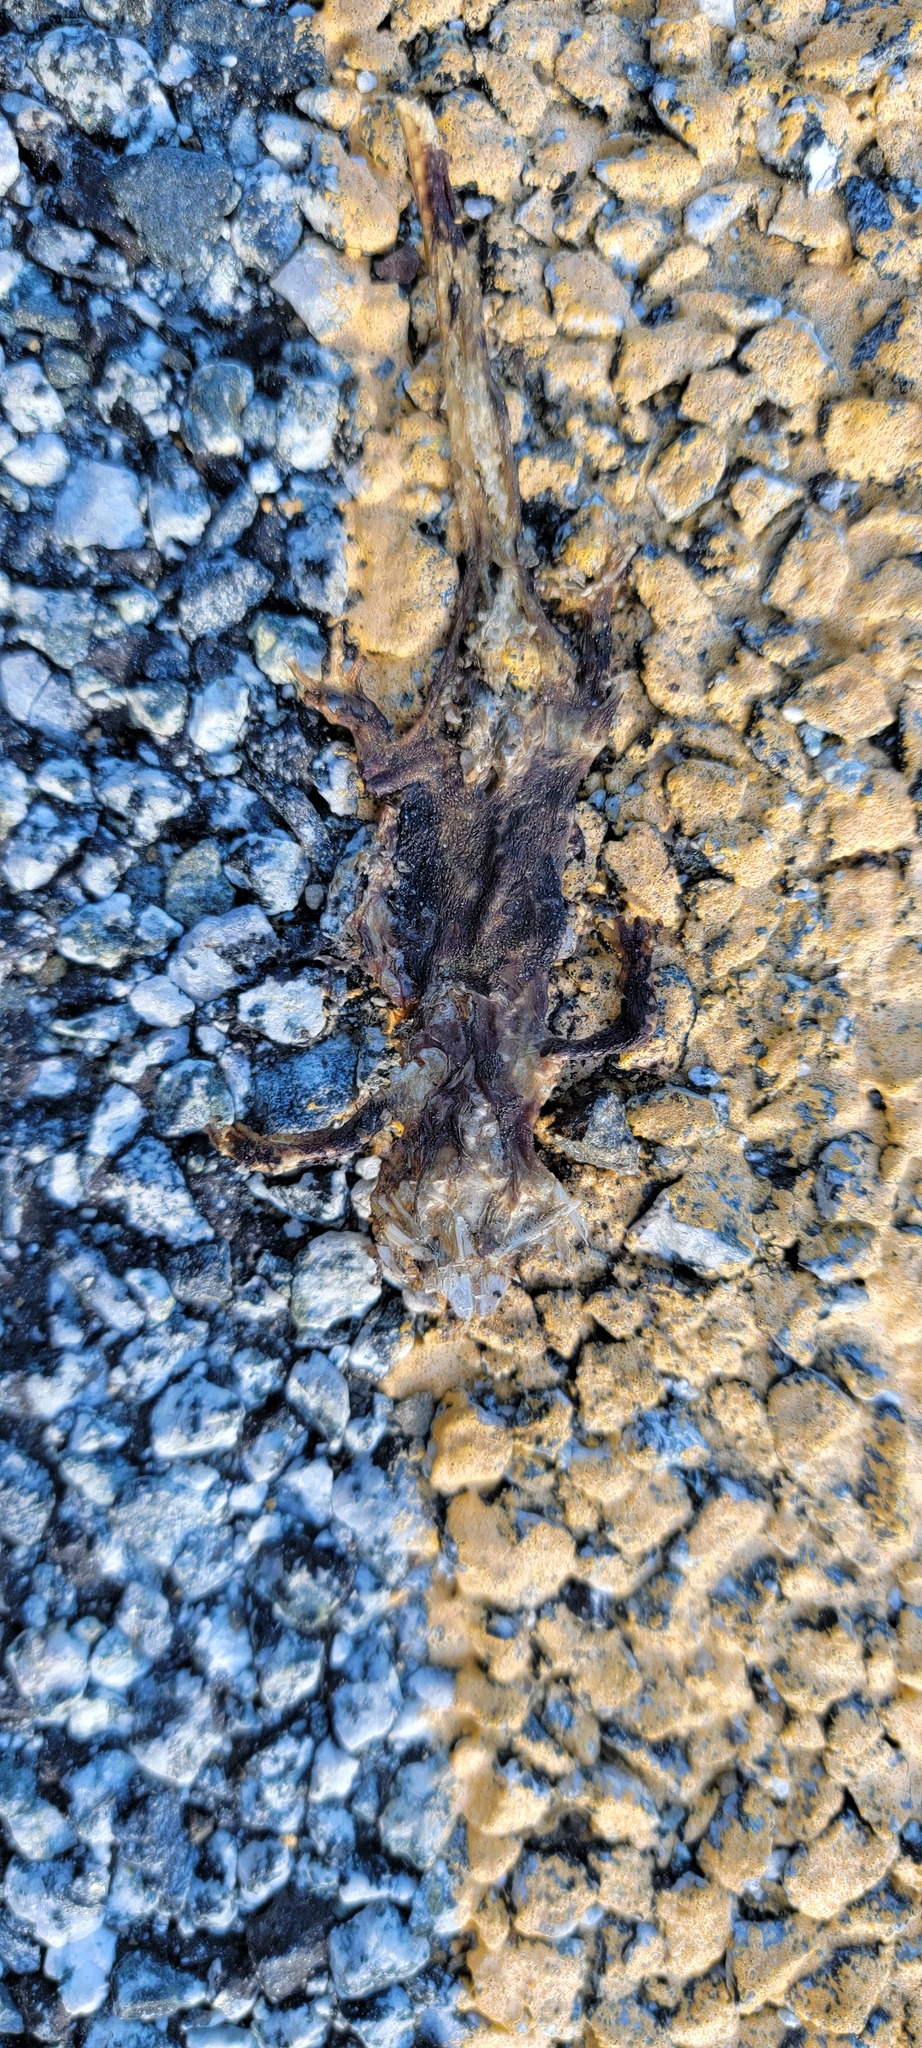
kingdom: Animalia
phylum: Chordata
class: Amphibia
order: Caudata
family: Salamandridae
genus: Taricha
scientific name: Taricha
